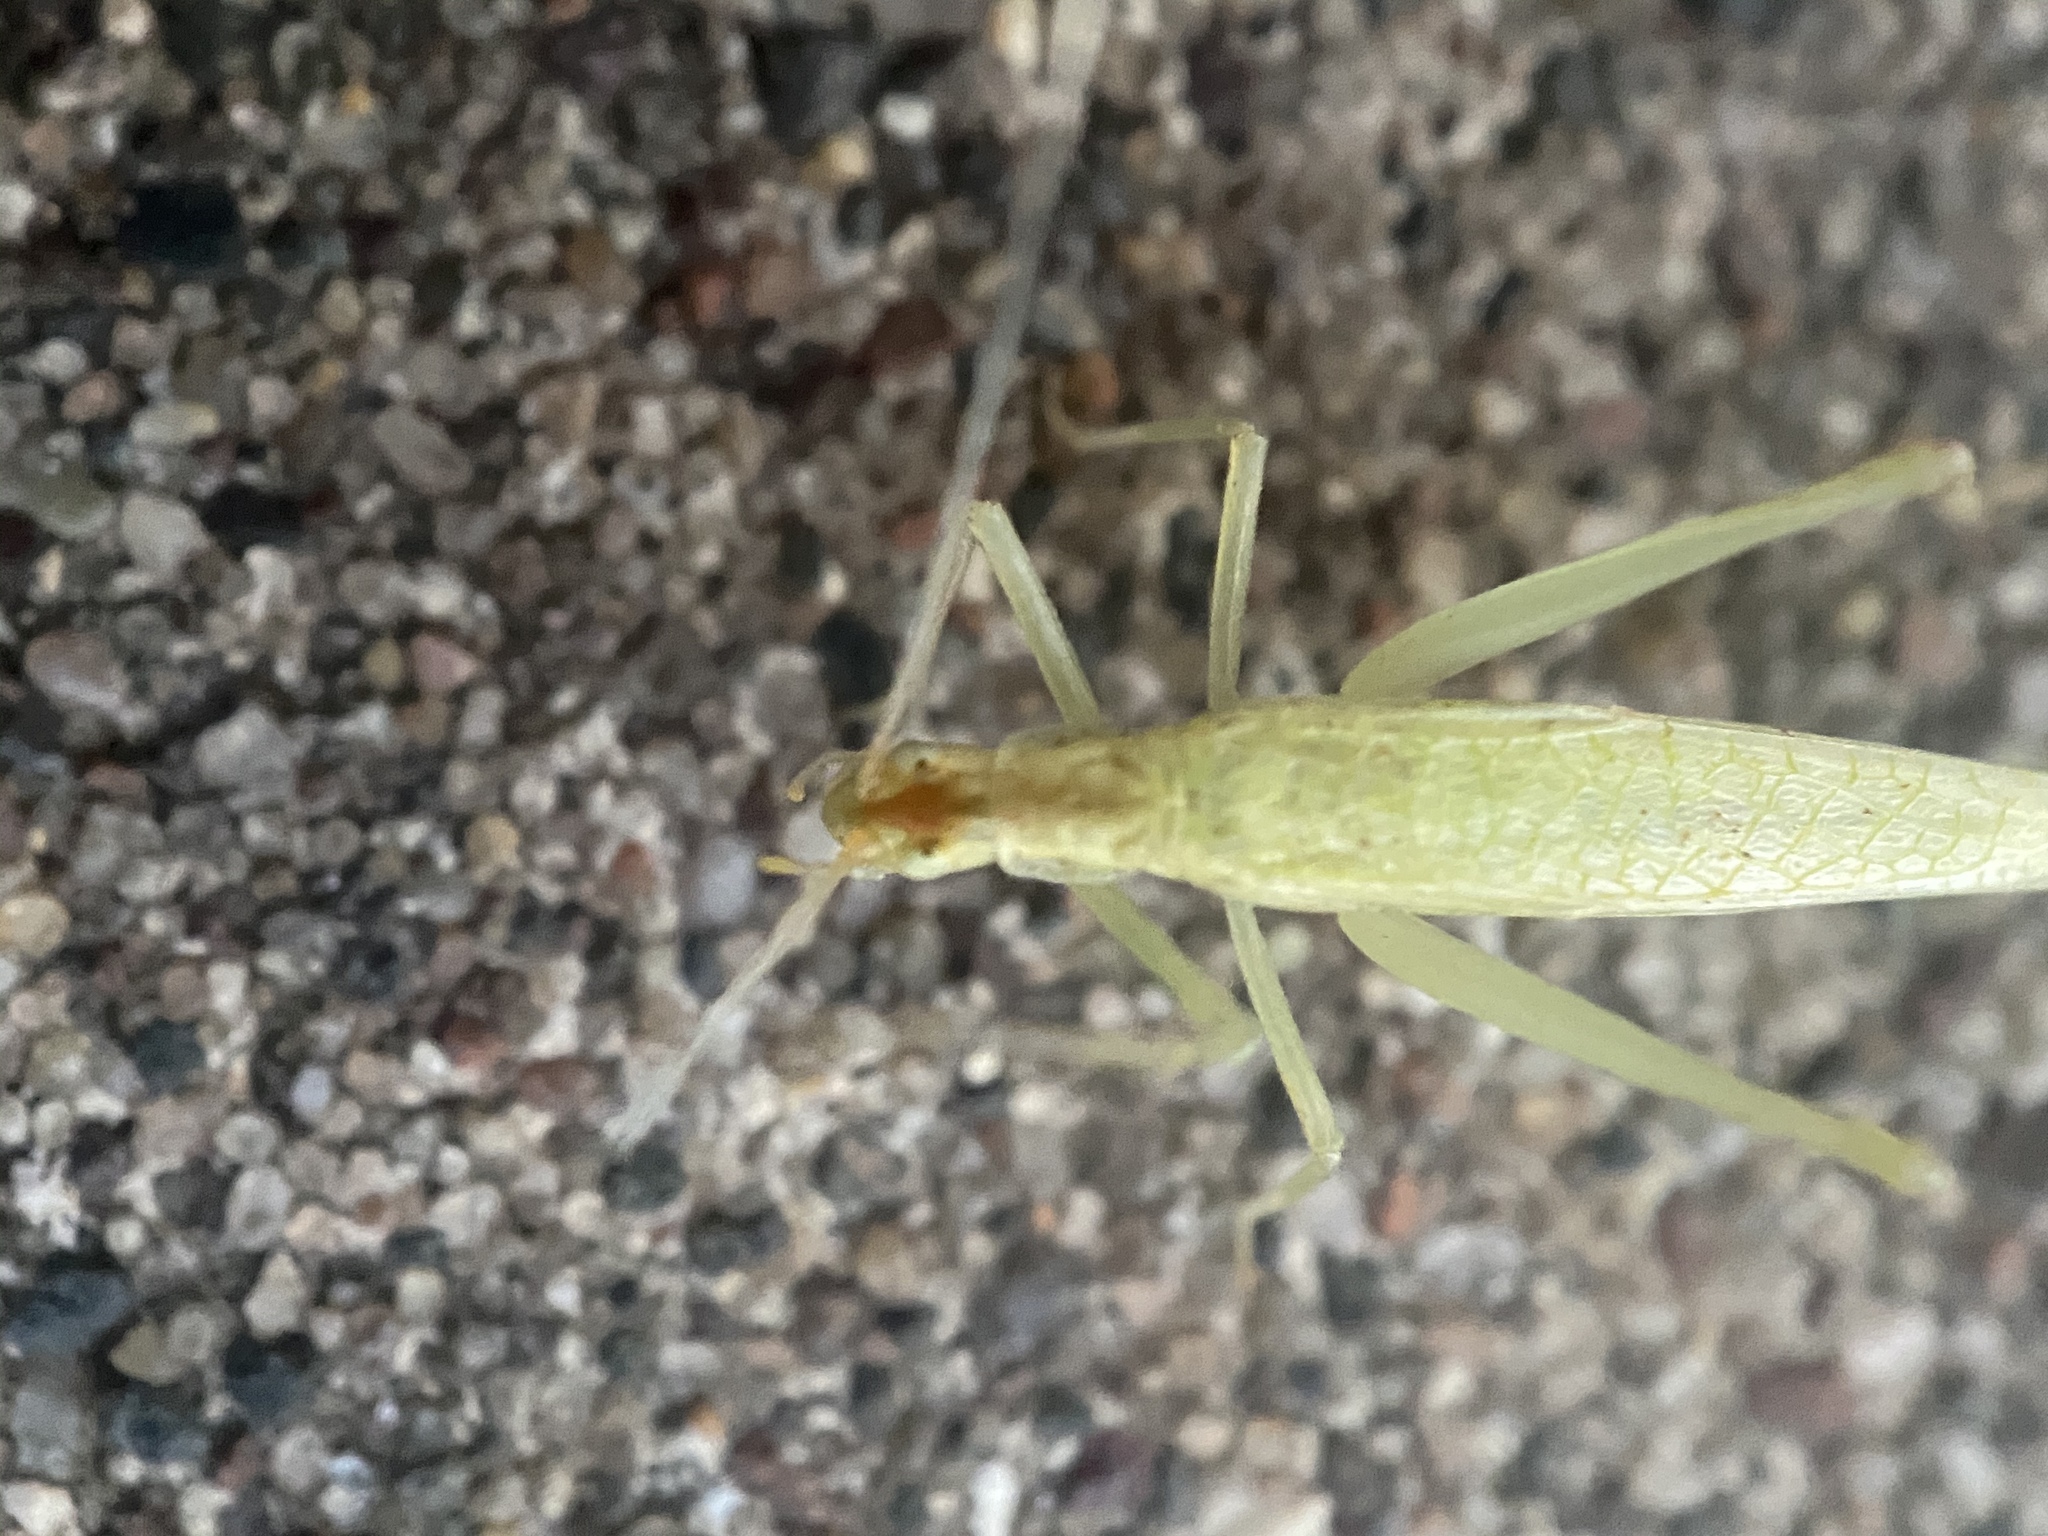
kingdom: Animalia
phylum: Arthropoda
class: Insecta
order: Orthoptera
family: Gryllidae
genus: Oecanthus
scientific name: Oecanthus niveus
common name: Narrow-winged tree cricket
